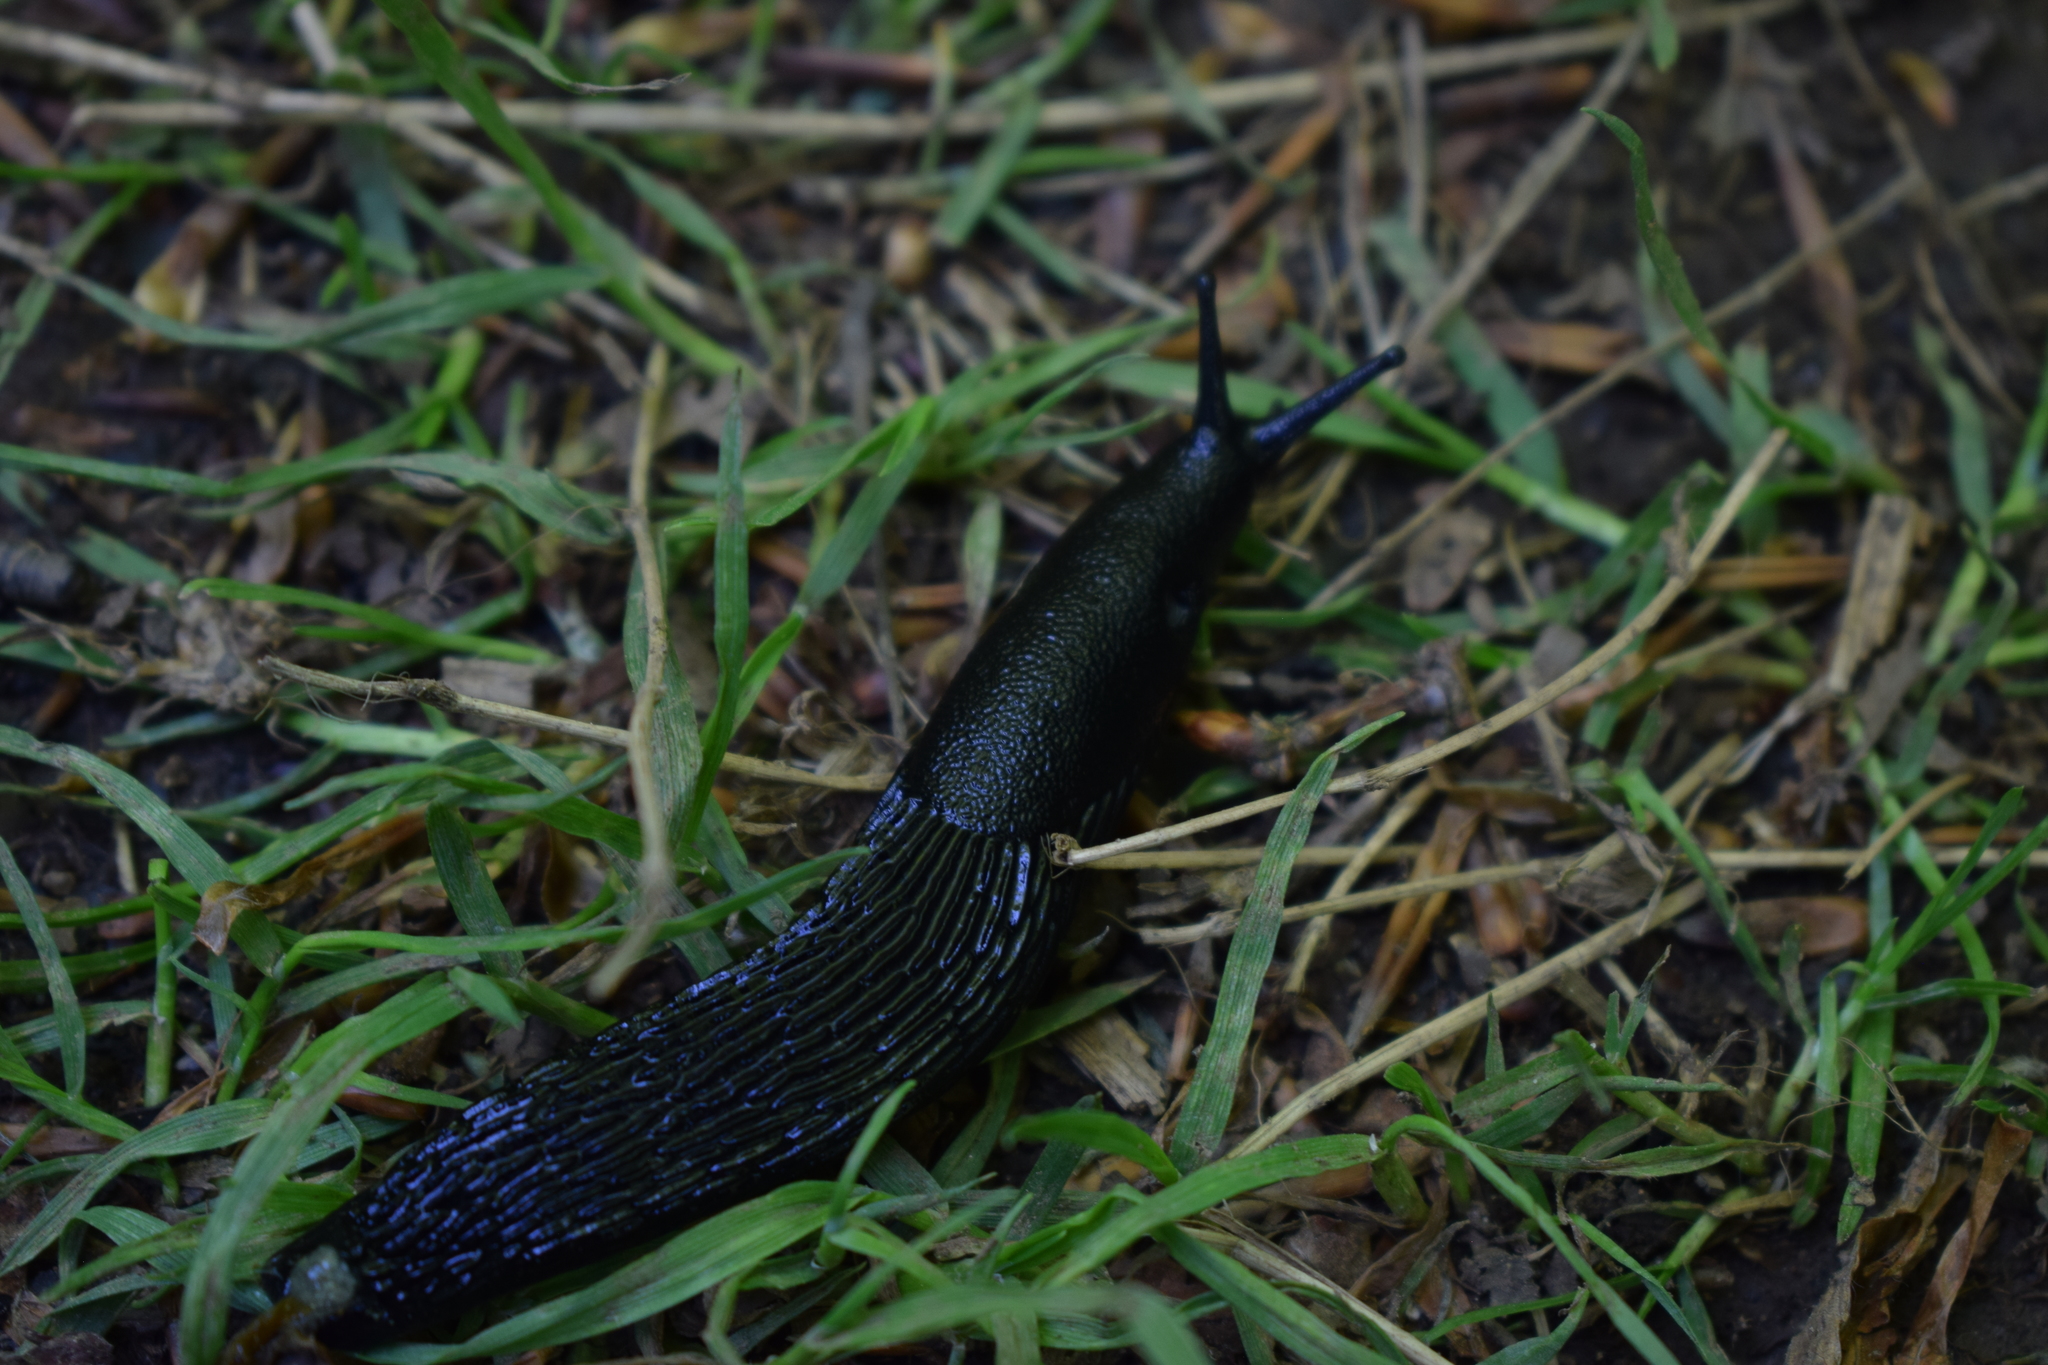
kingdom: Animalia
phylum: Mollusca
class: Gastropoda
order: Stylommatophora
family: Arionidae
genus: Arion
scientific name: Arion ater
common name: Black arion
